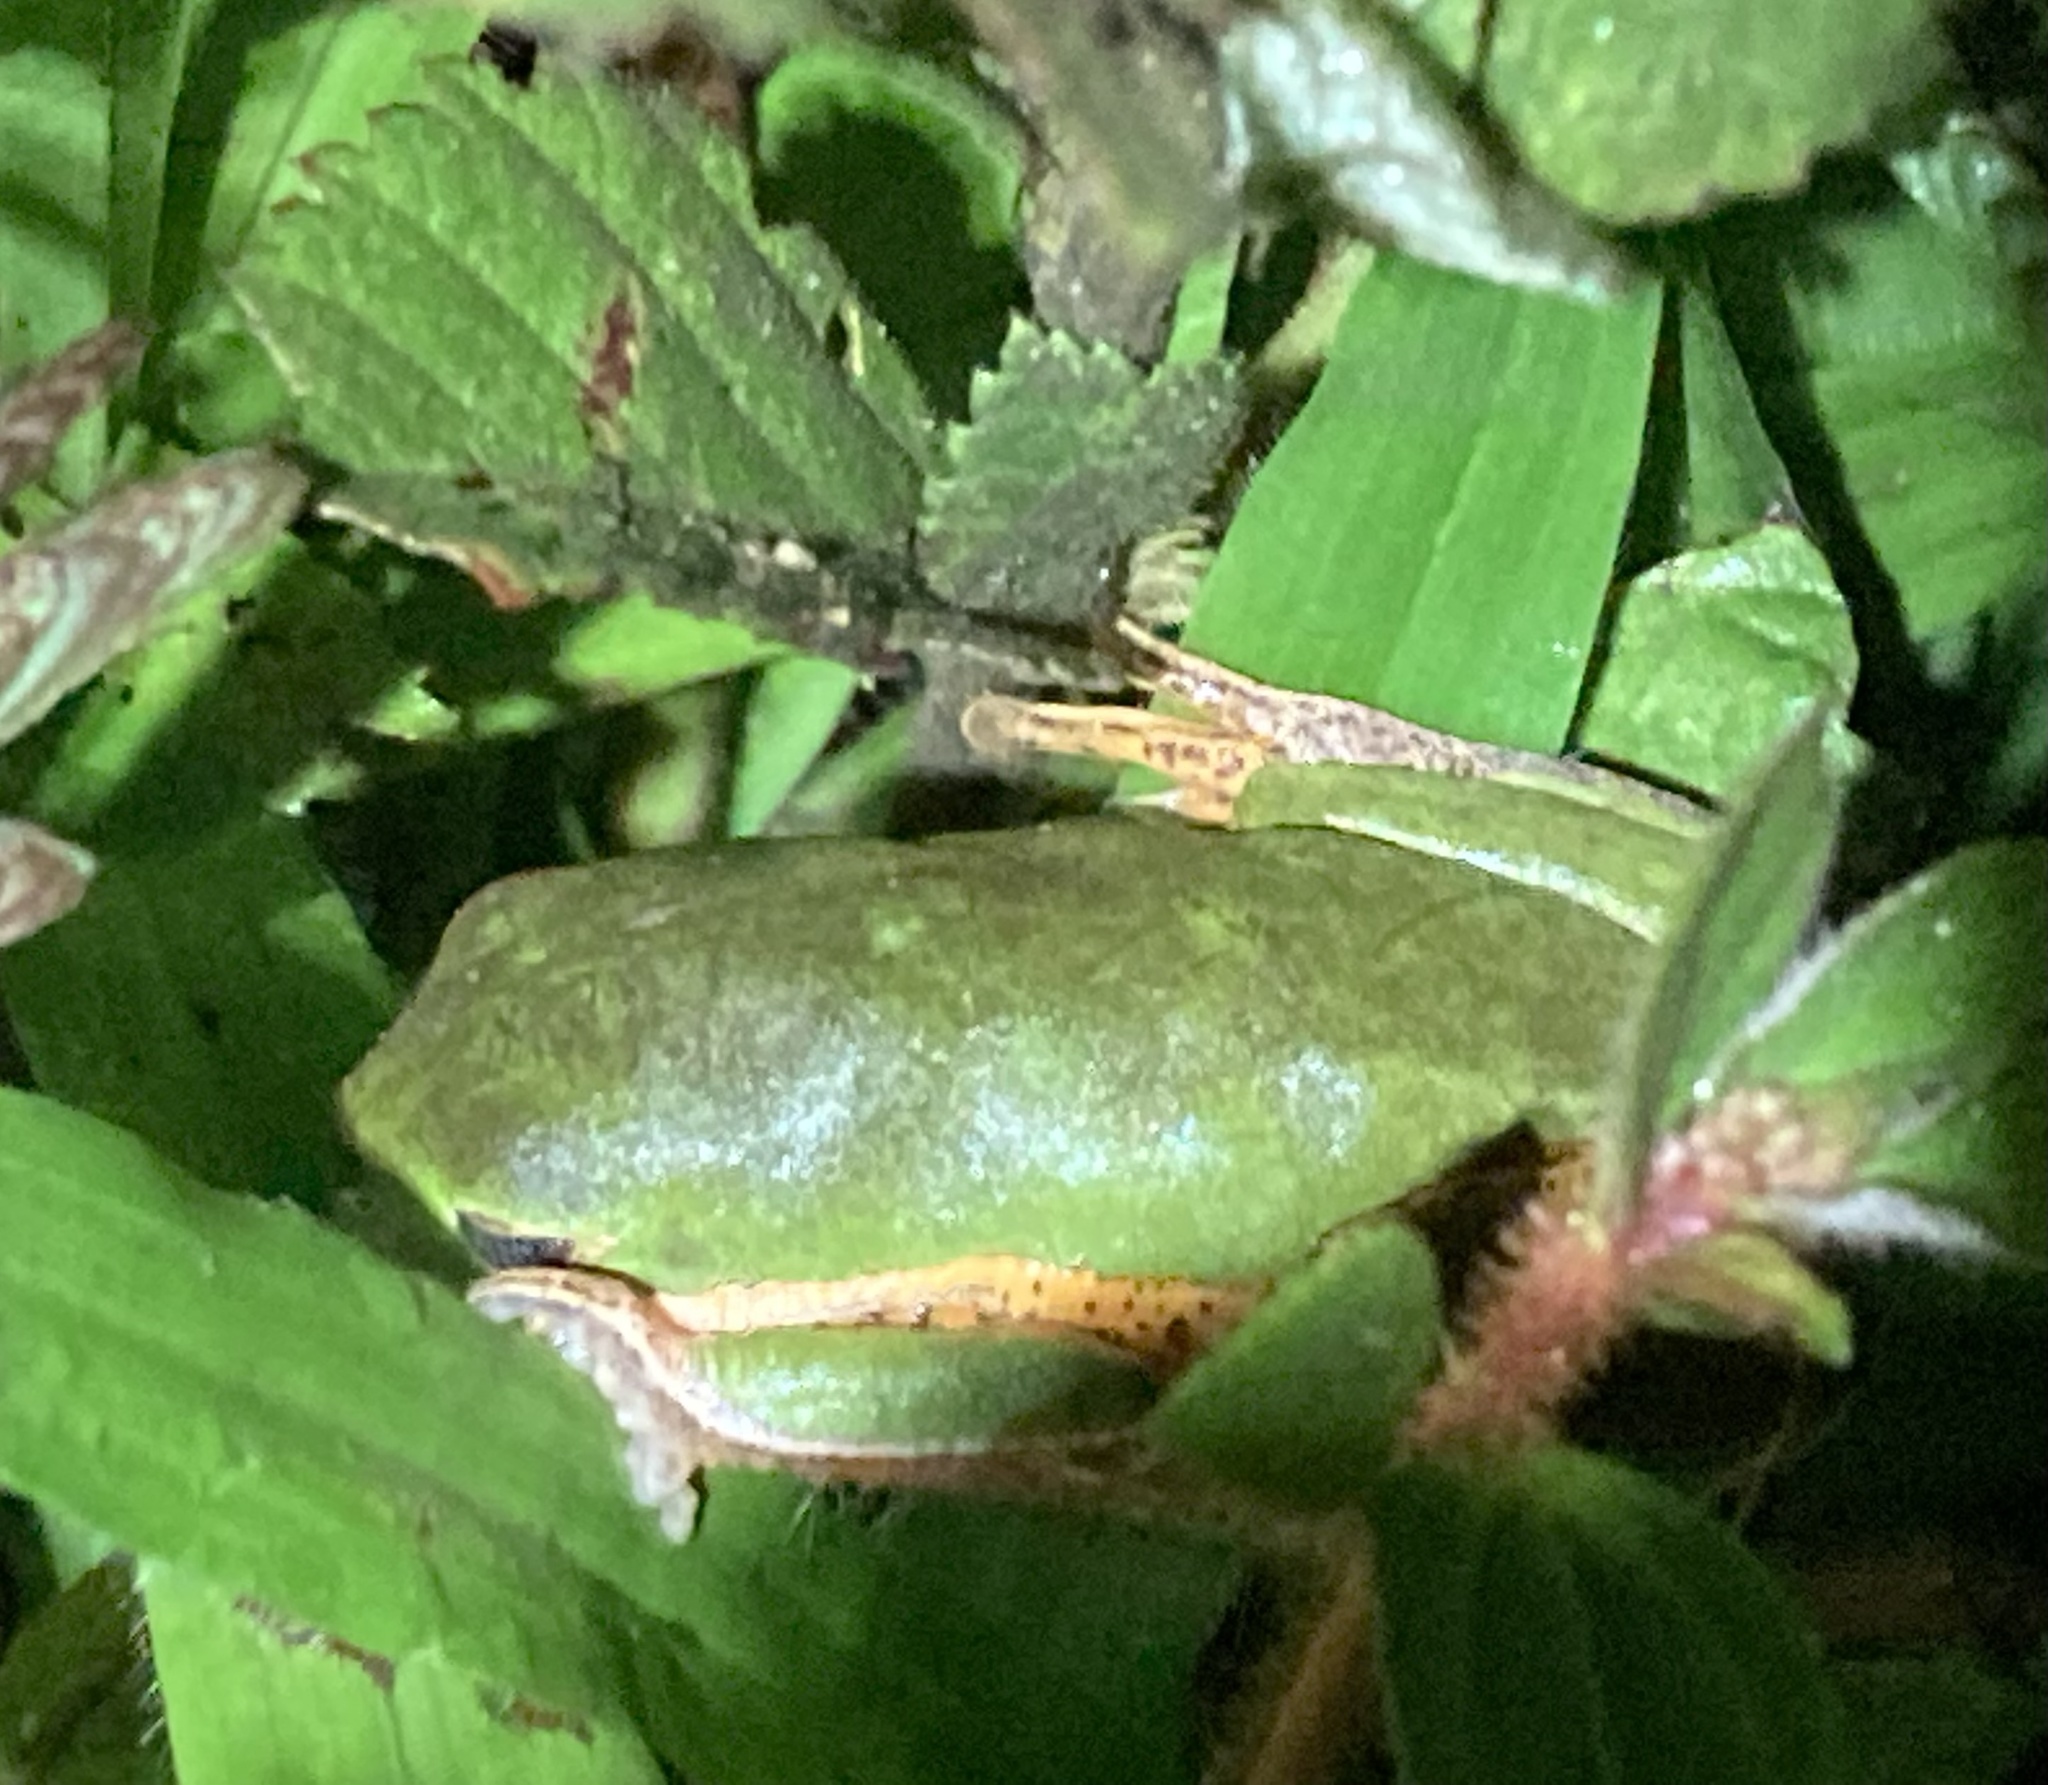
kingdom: Animalia
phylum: Chordata
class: Amphibia
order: Anura
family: Phyllomedusidae
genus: Pithecopus
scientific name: Pithecopus hypochondrialis
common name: Orange-legged leaf frog
